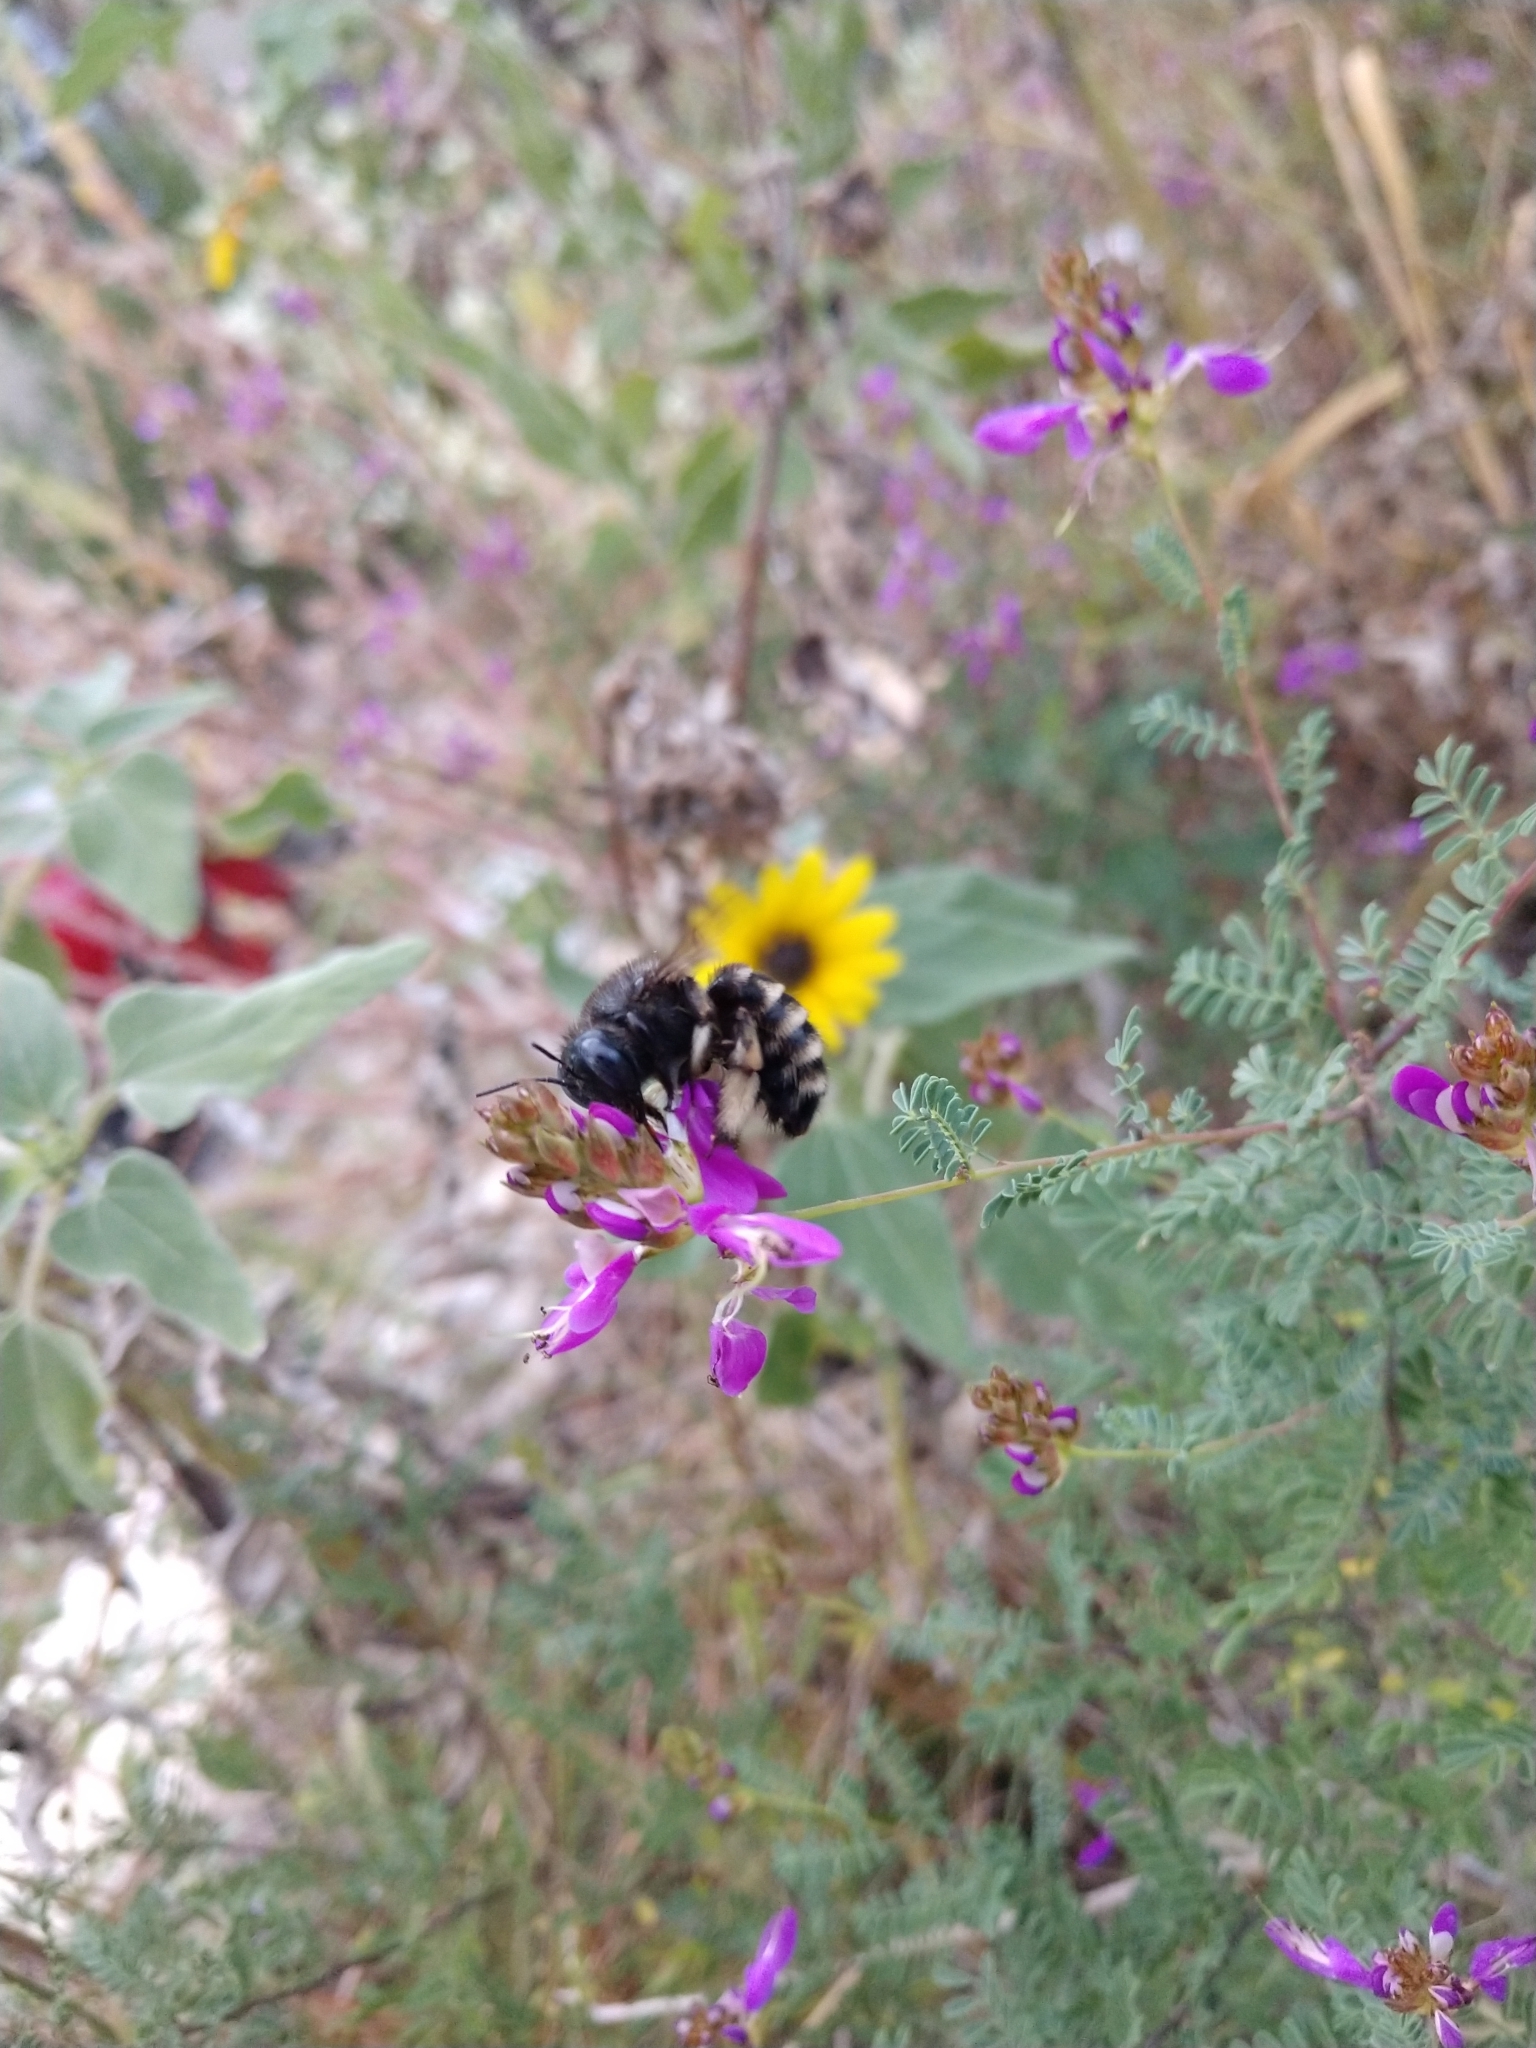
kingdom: Animalia
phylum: Arthropoda
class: Insecta
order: Hymenoptera
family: Apidae
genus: Xylocopa
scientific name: Xylocopa tabaniformis
